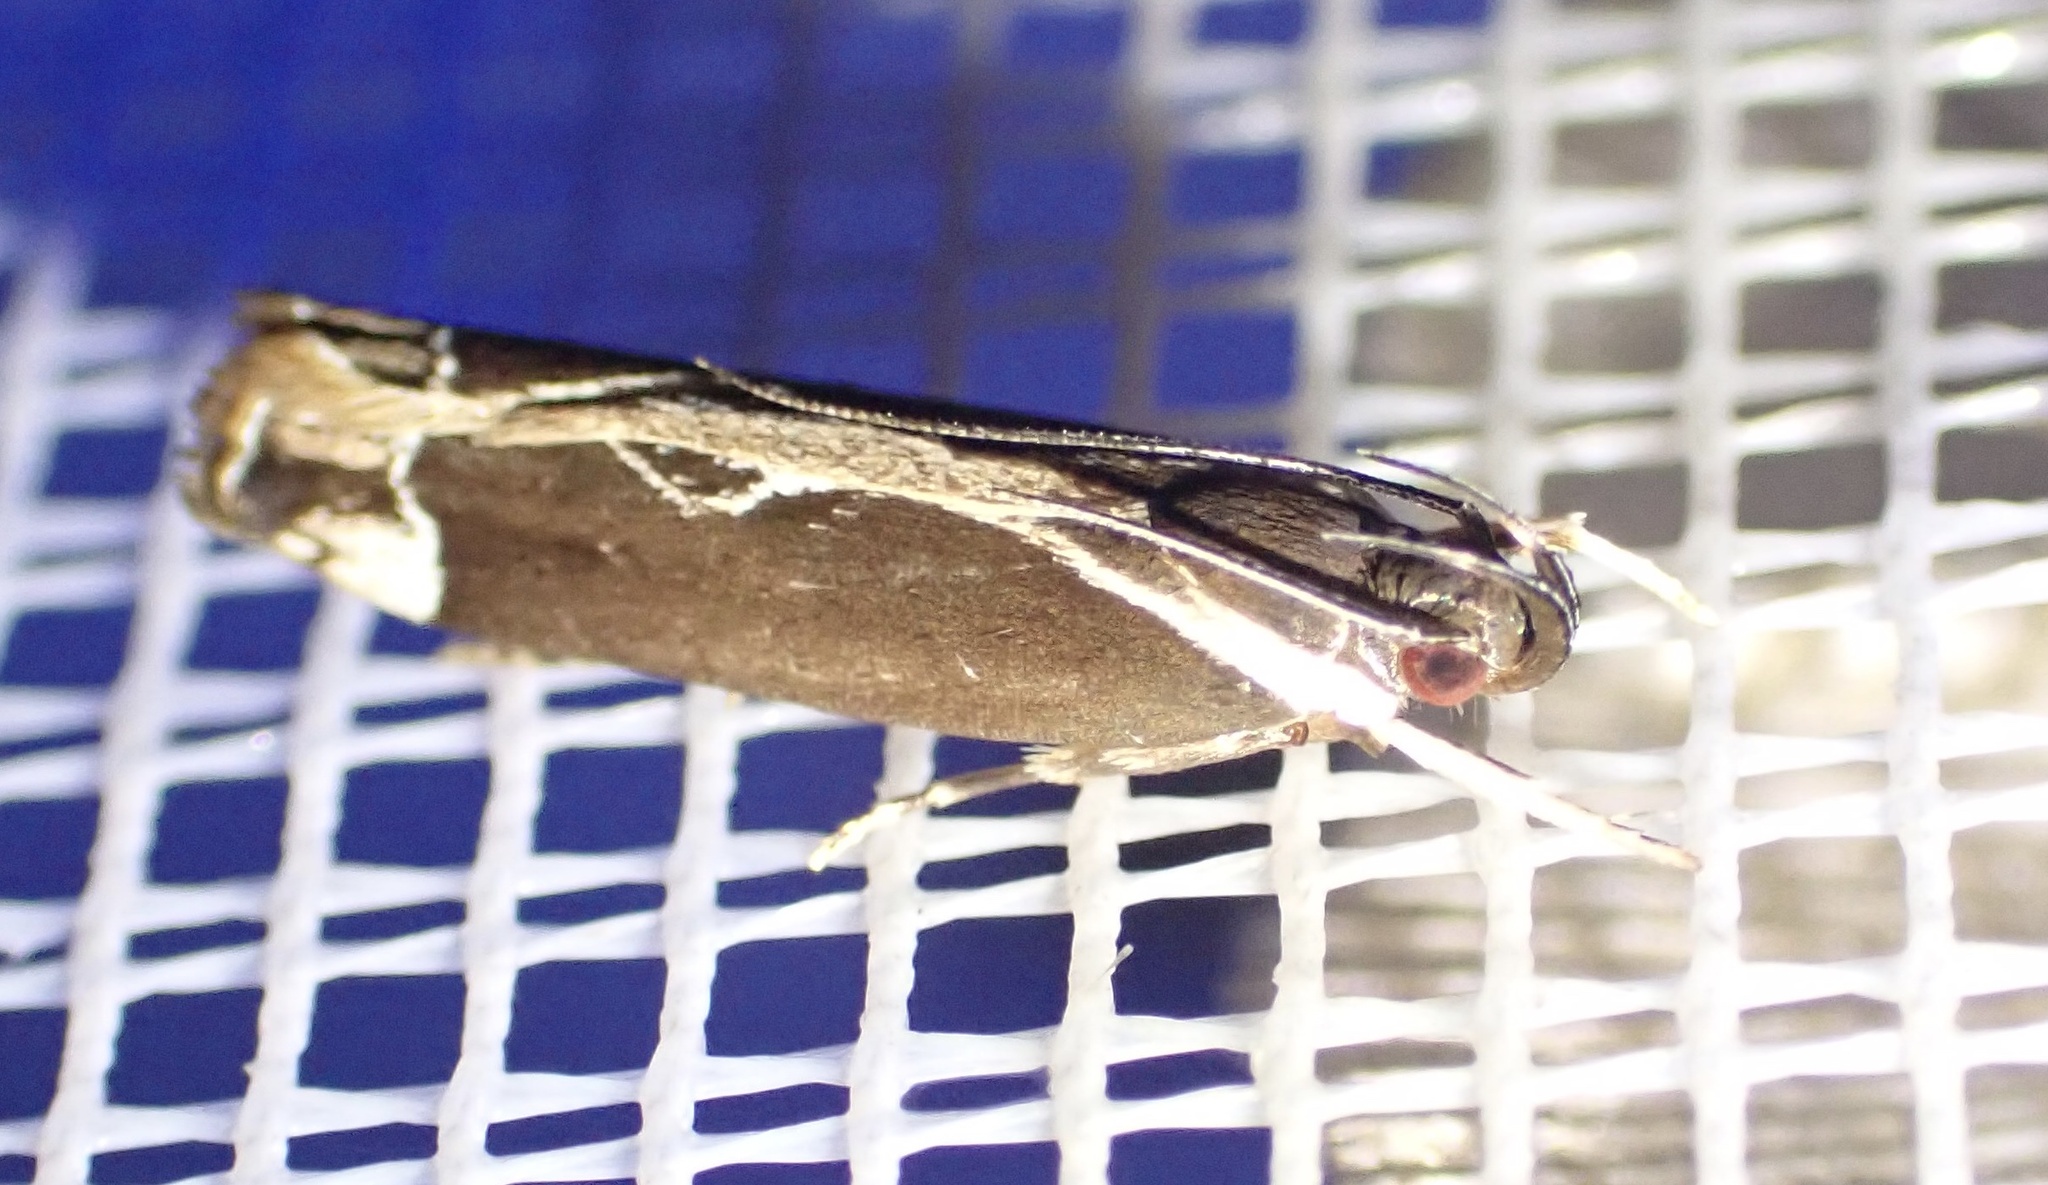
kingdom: Animalia
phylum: Arthropoda
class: Insecta
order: Lepidoptera
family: Gelechiidae
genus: Chaliniastis
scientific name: Chaliniastis astrapaea
